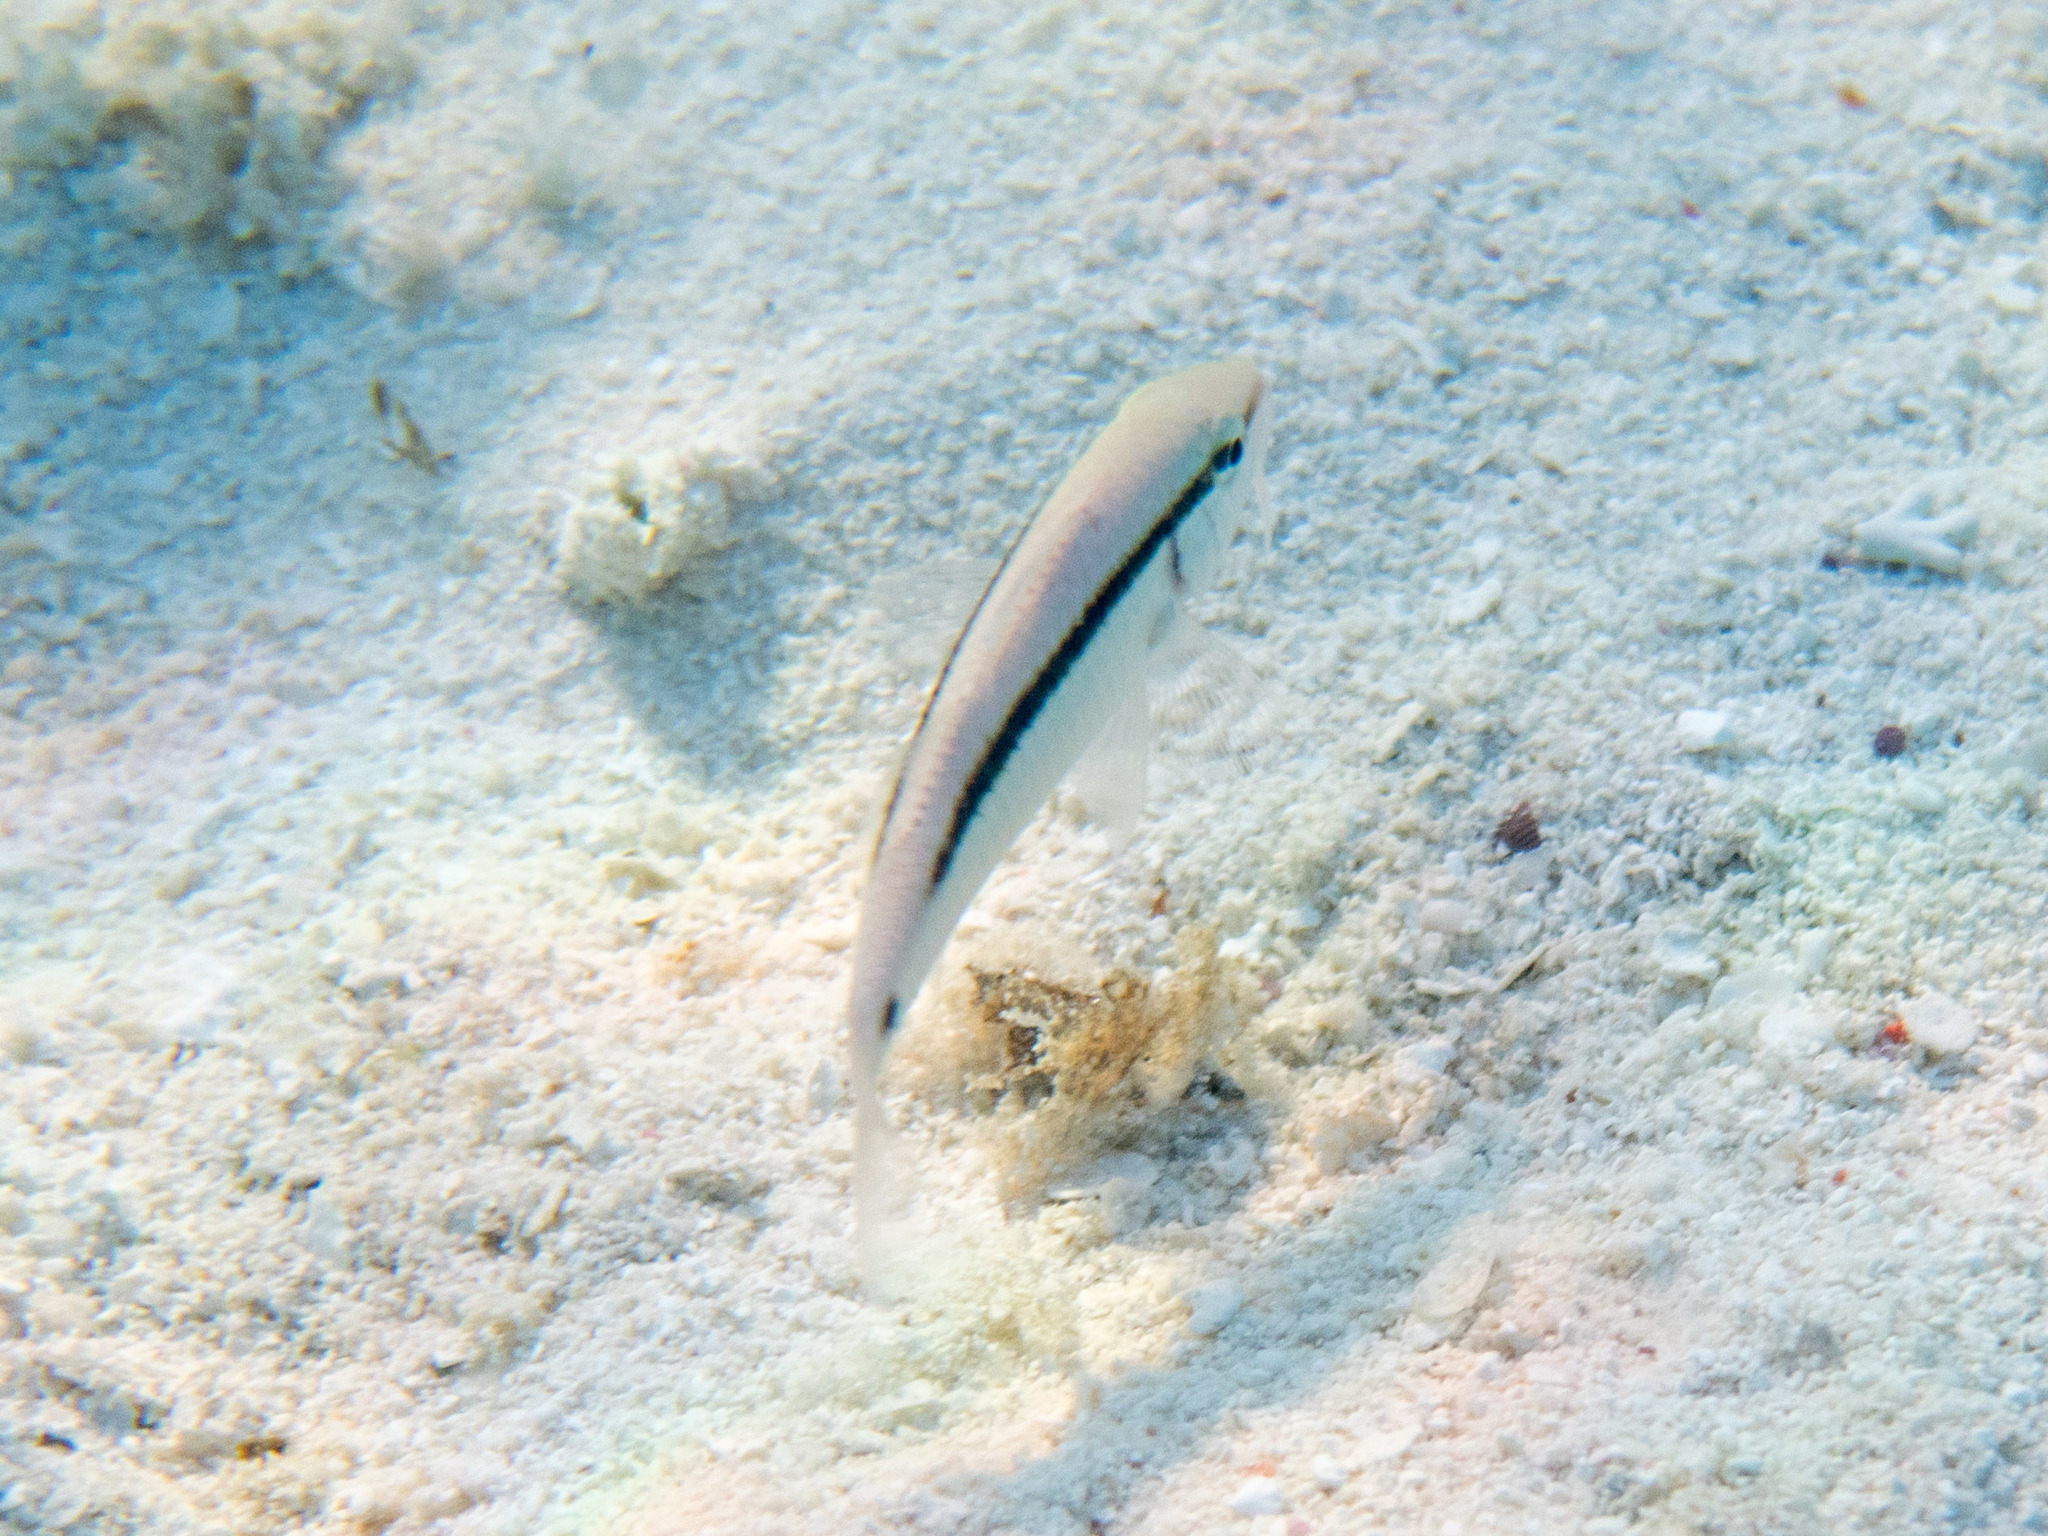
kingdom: Animalia
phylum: Chordata
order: Perciformes
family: Mullidae
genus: Parupeneus
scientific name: Parupeneus barberinus
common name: Dash-and-dot goatfish
